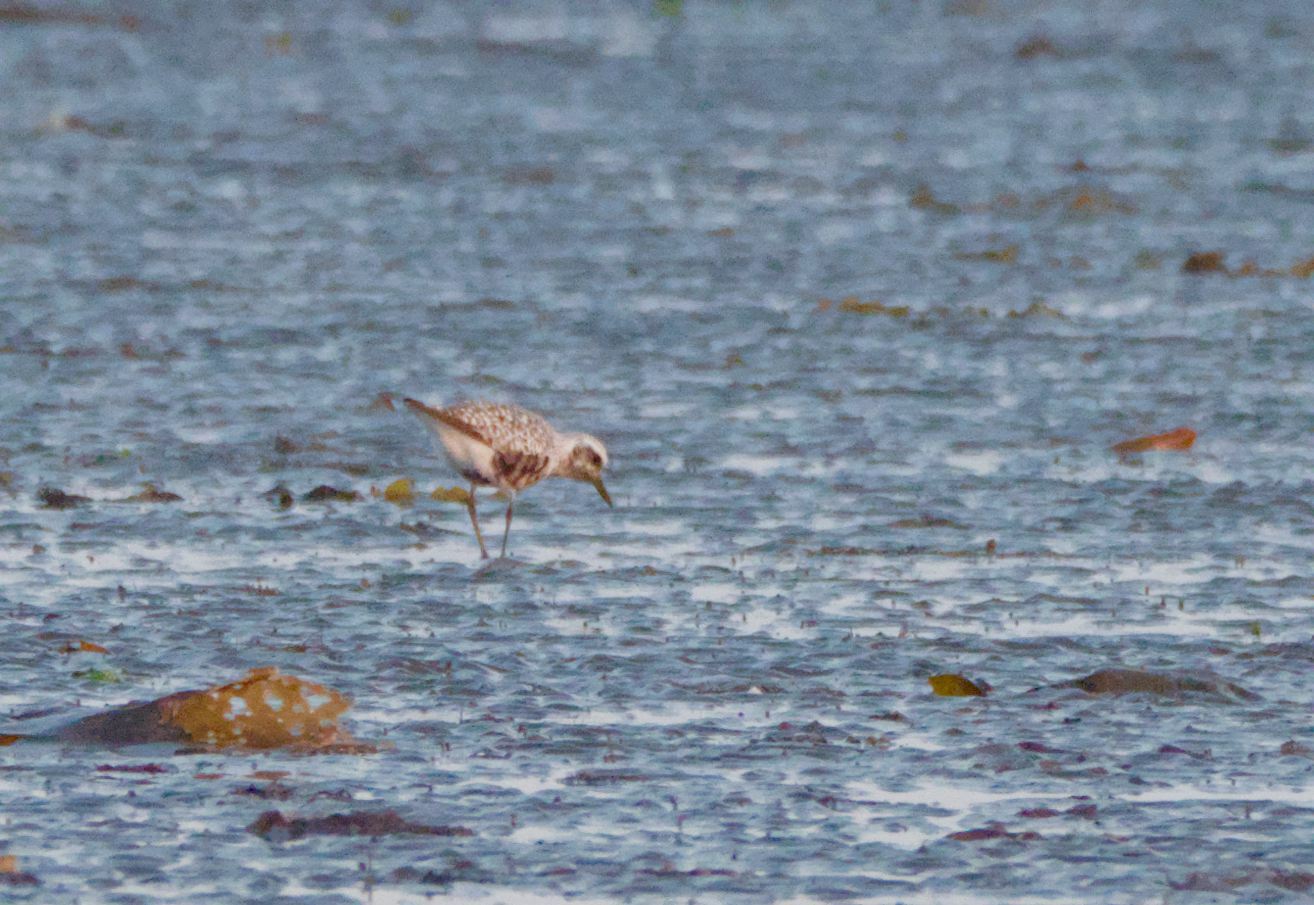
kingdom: Animalia
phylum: Chordata
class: Aves
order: Charadriiformes
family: Charadriidae
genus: Pluvialis
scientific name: Pluvialis squatarola
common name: Grey plover
